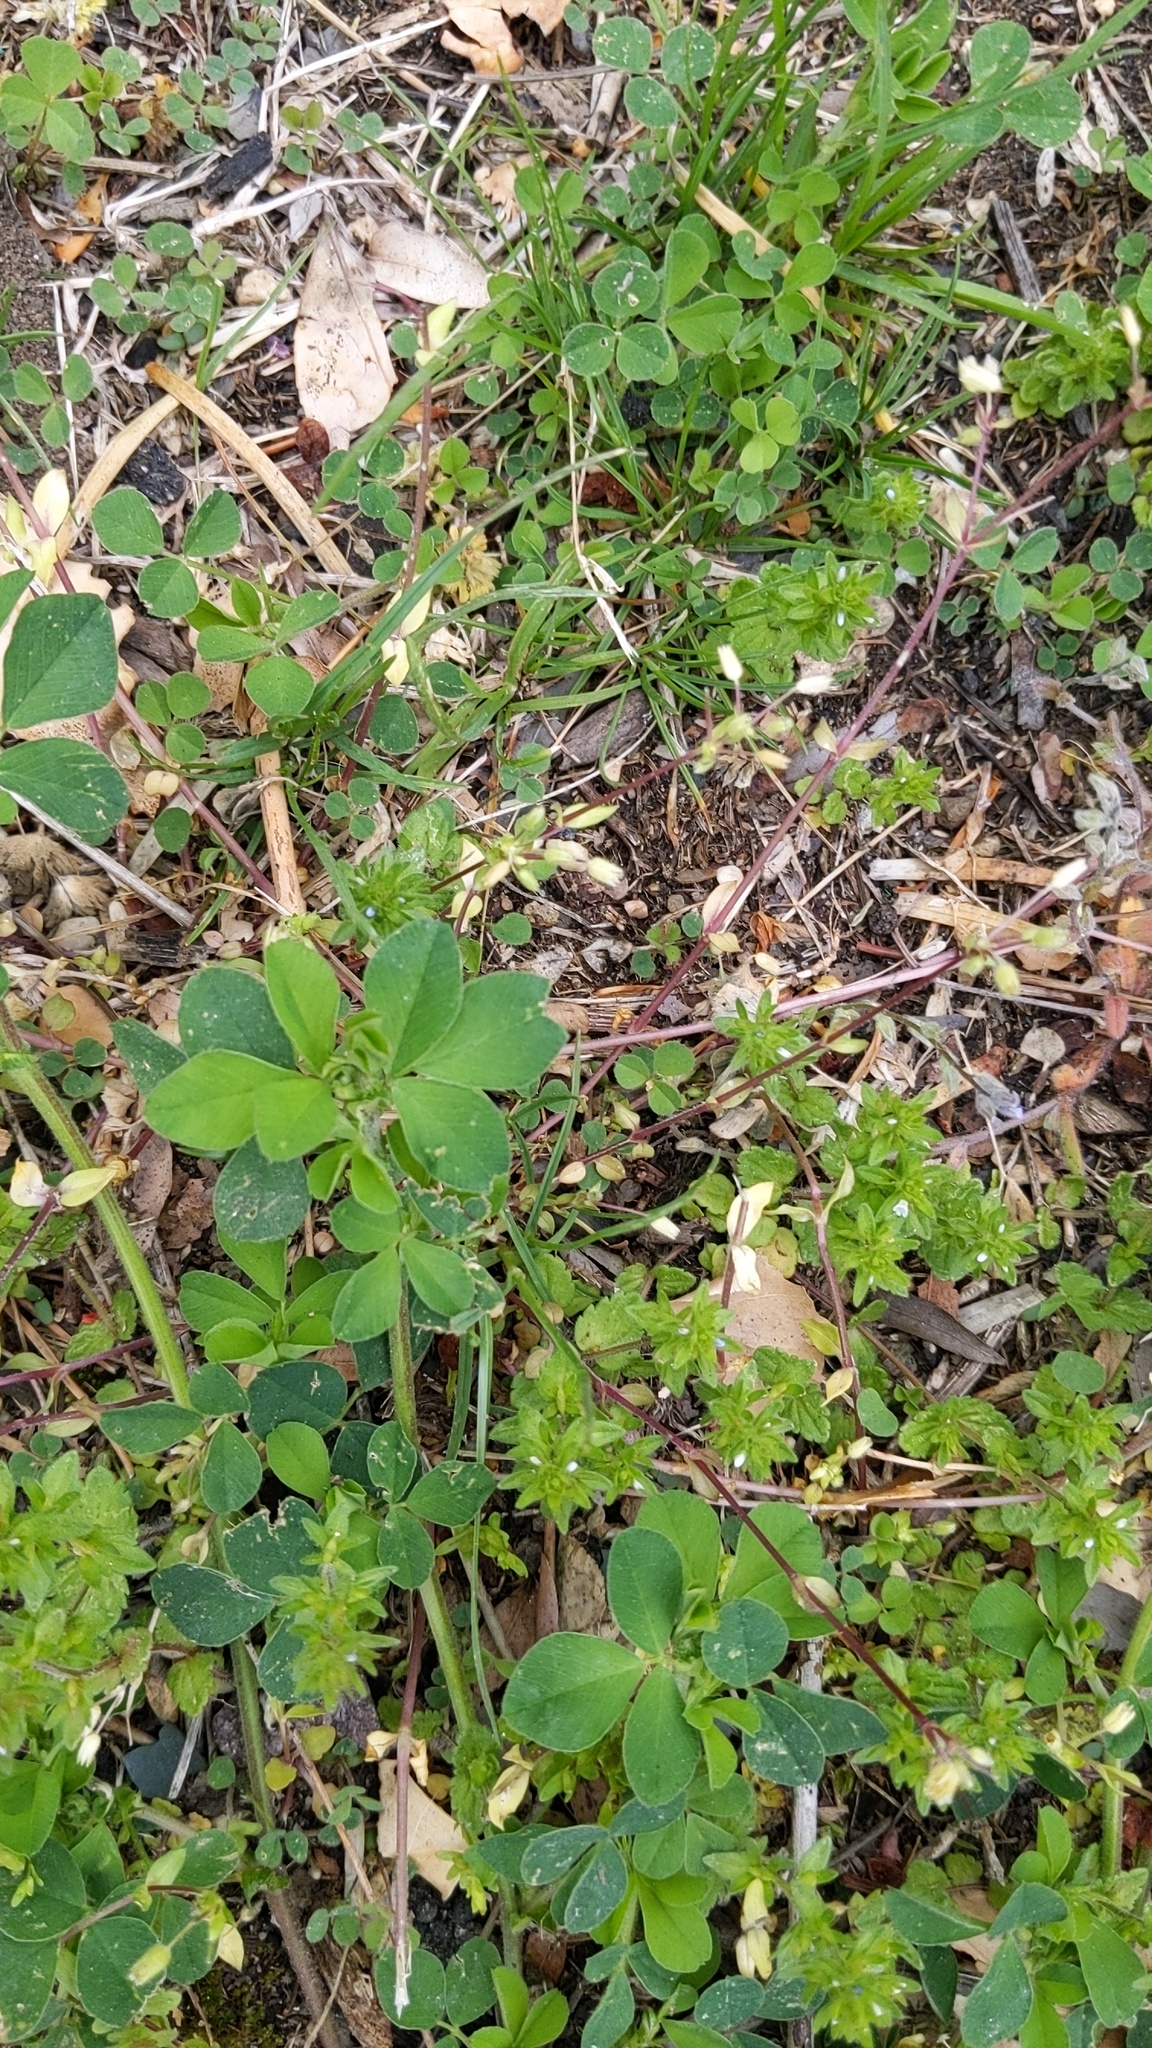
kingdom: Plantae
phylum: Tracheophyta
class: Magnoliopsida
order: Fabales
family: Fabaceae
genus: Medicago
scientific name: Medicago lupulina
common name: Black medick
